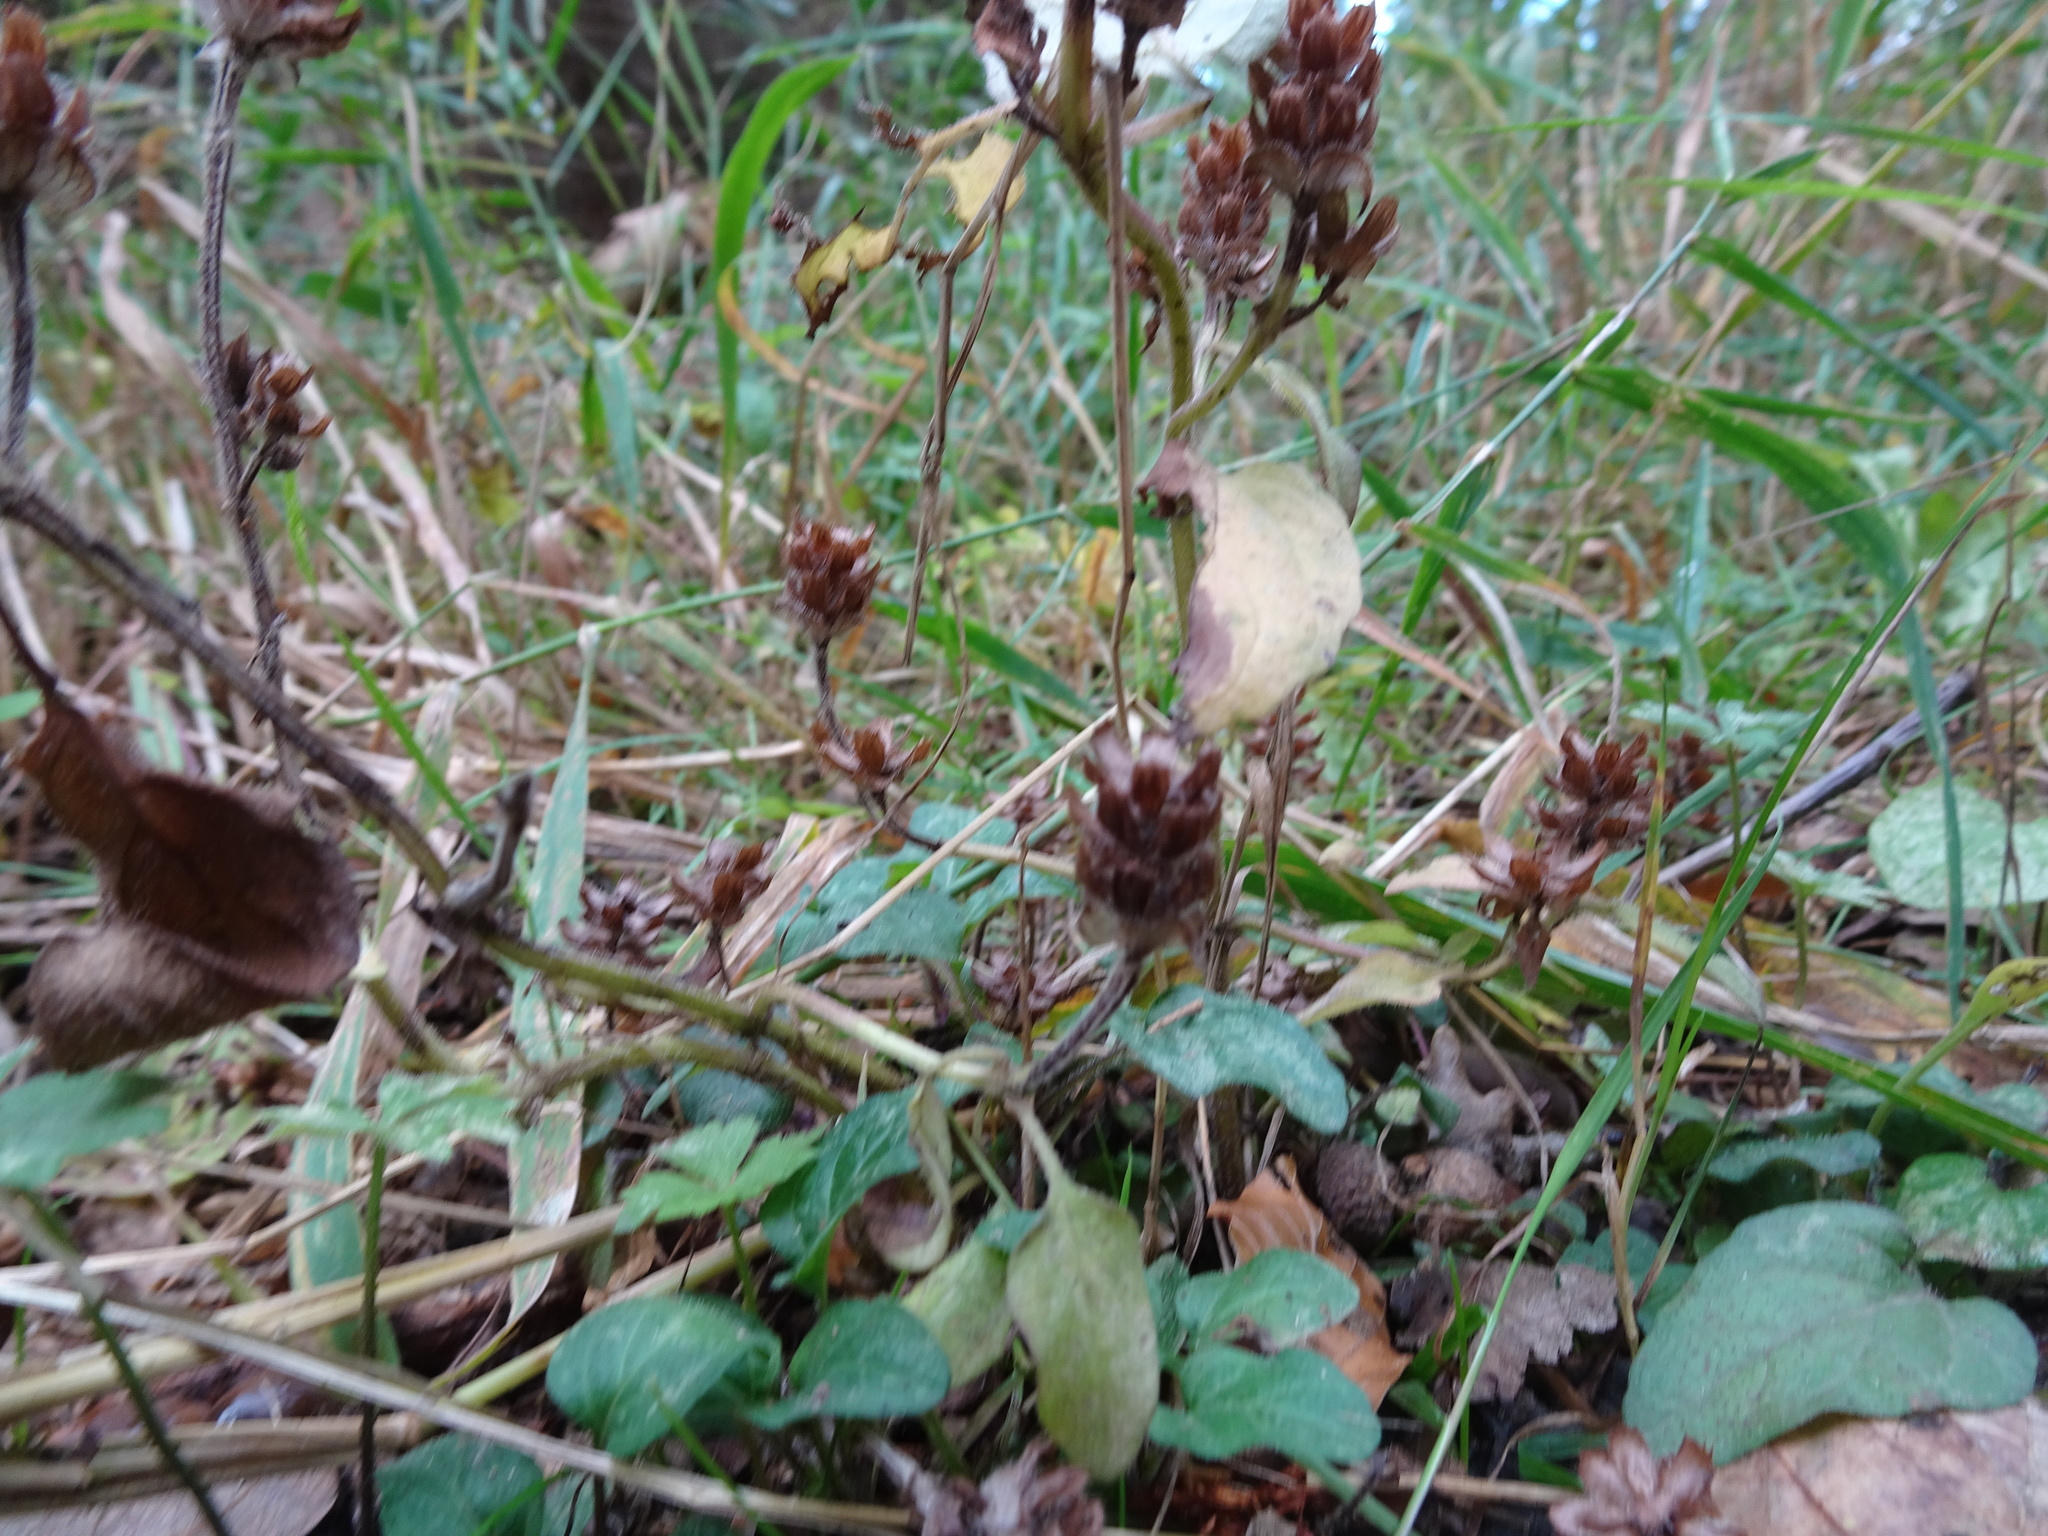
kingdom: Plantae
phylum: Tracheophyta
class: Magnoliopsida
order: Lamiales
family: Lamiaceae
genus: Prunella
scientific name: Prunella vulgaris
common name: Heal-all
